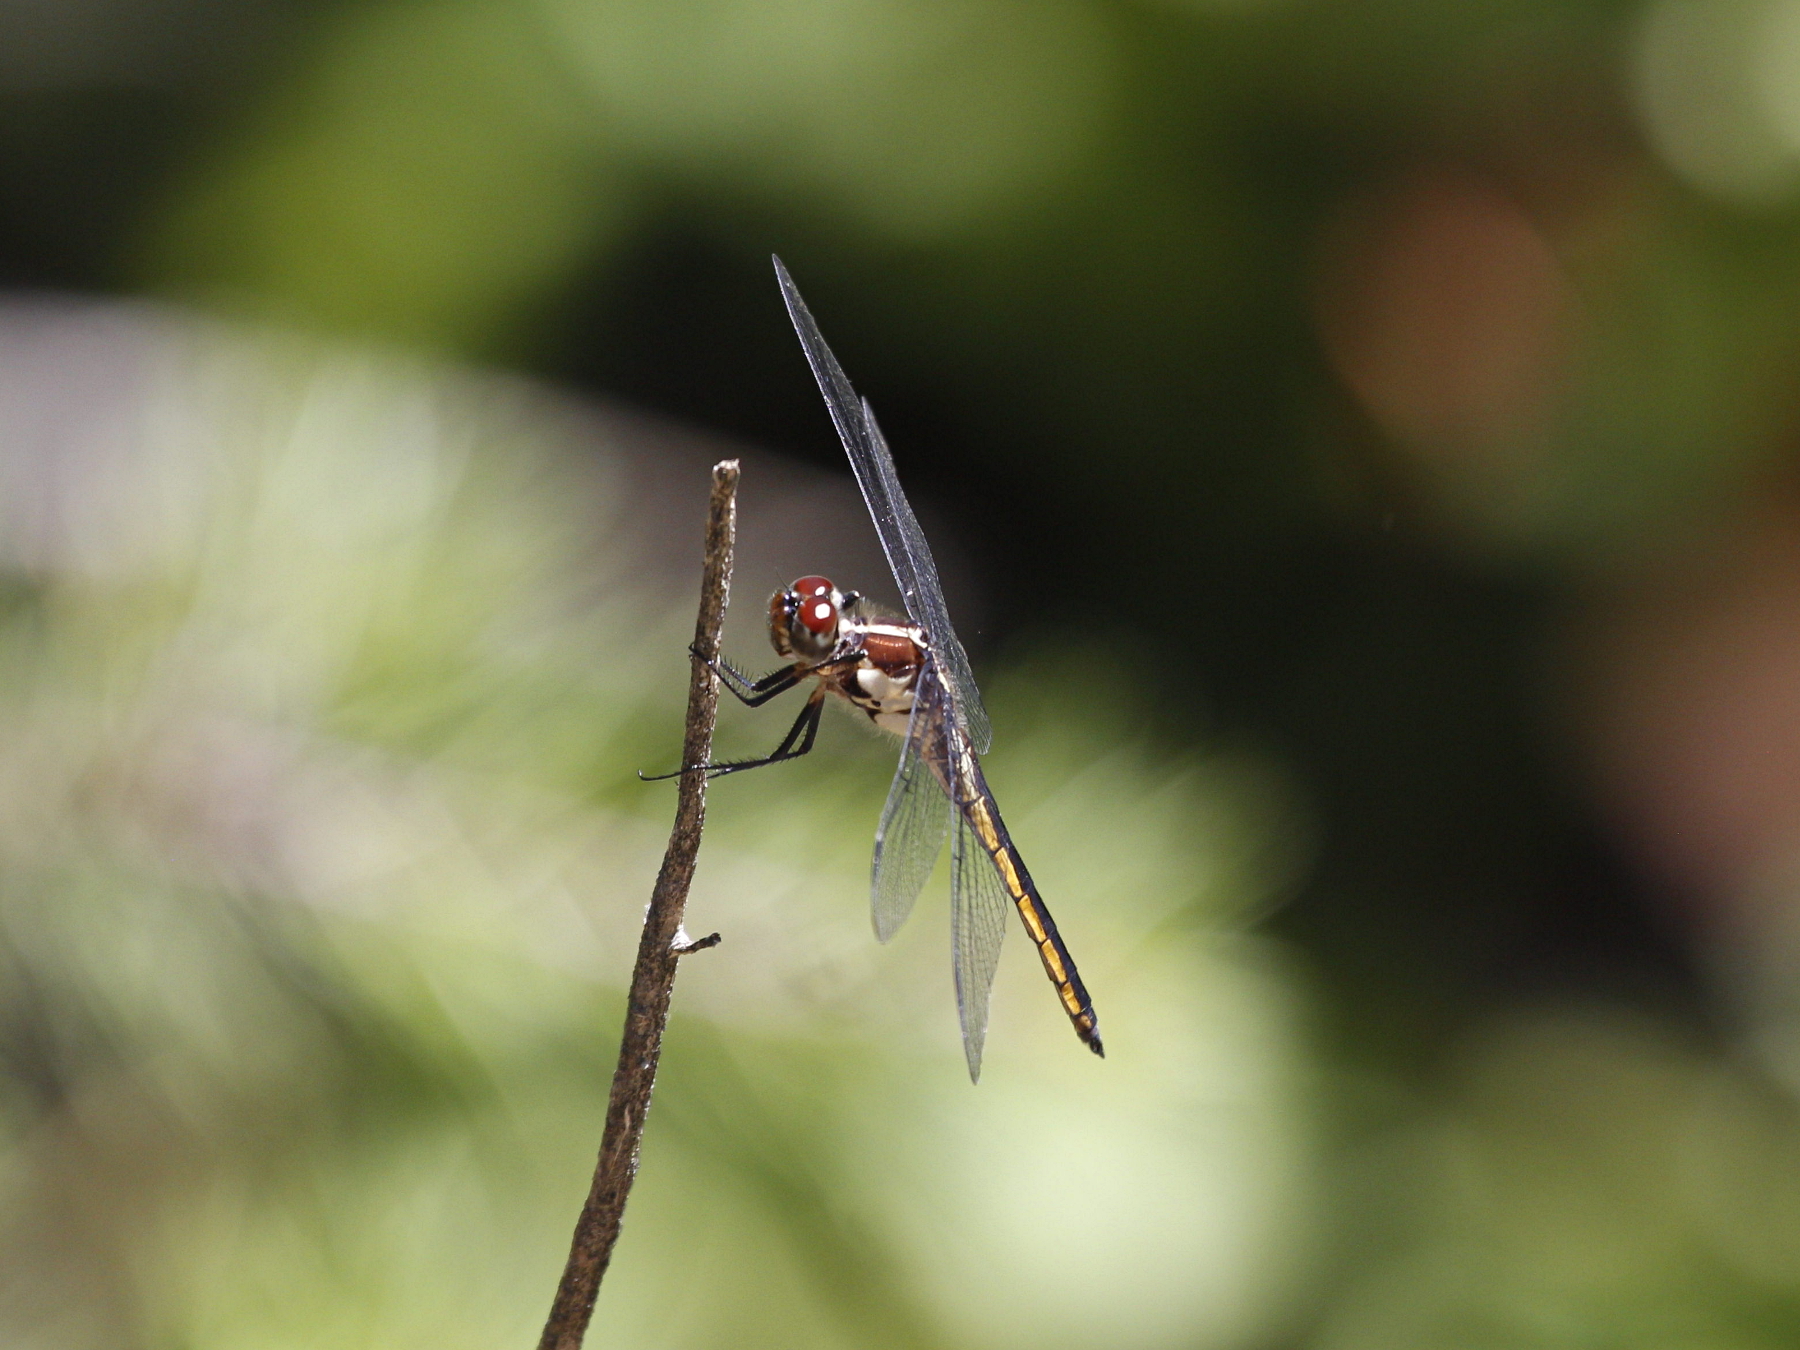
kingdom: Animalia
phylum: Arthropoda
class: Insecta
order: Odonata
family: Libellulidae
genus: Libellula
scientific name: Libellula incesta
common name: Slaty skimmer
